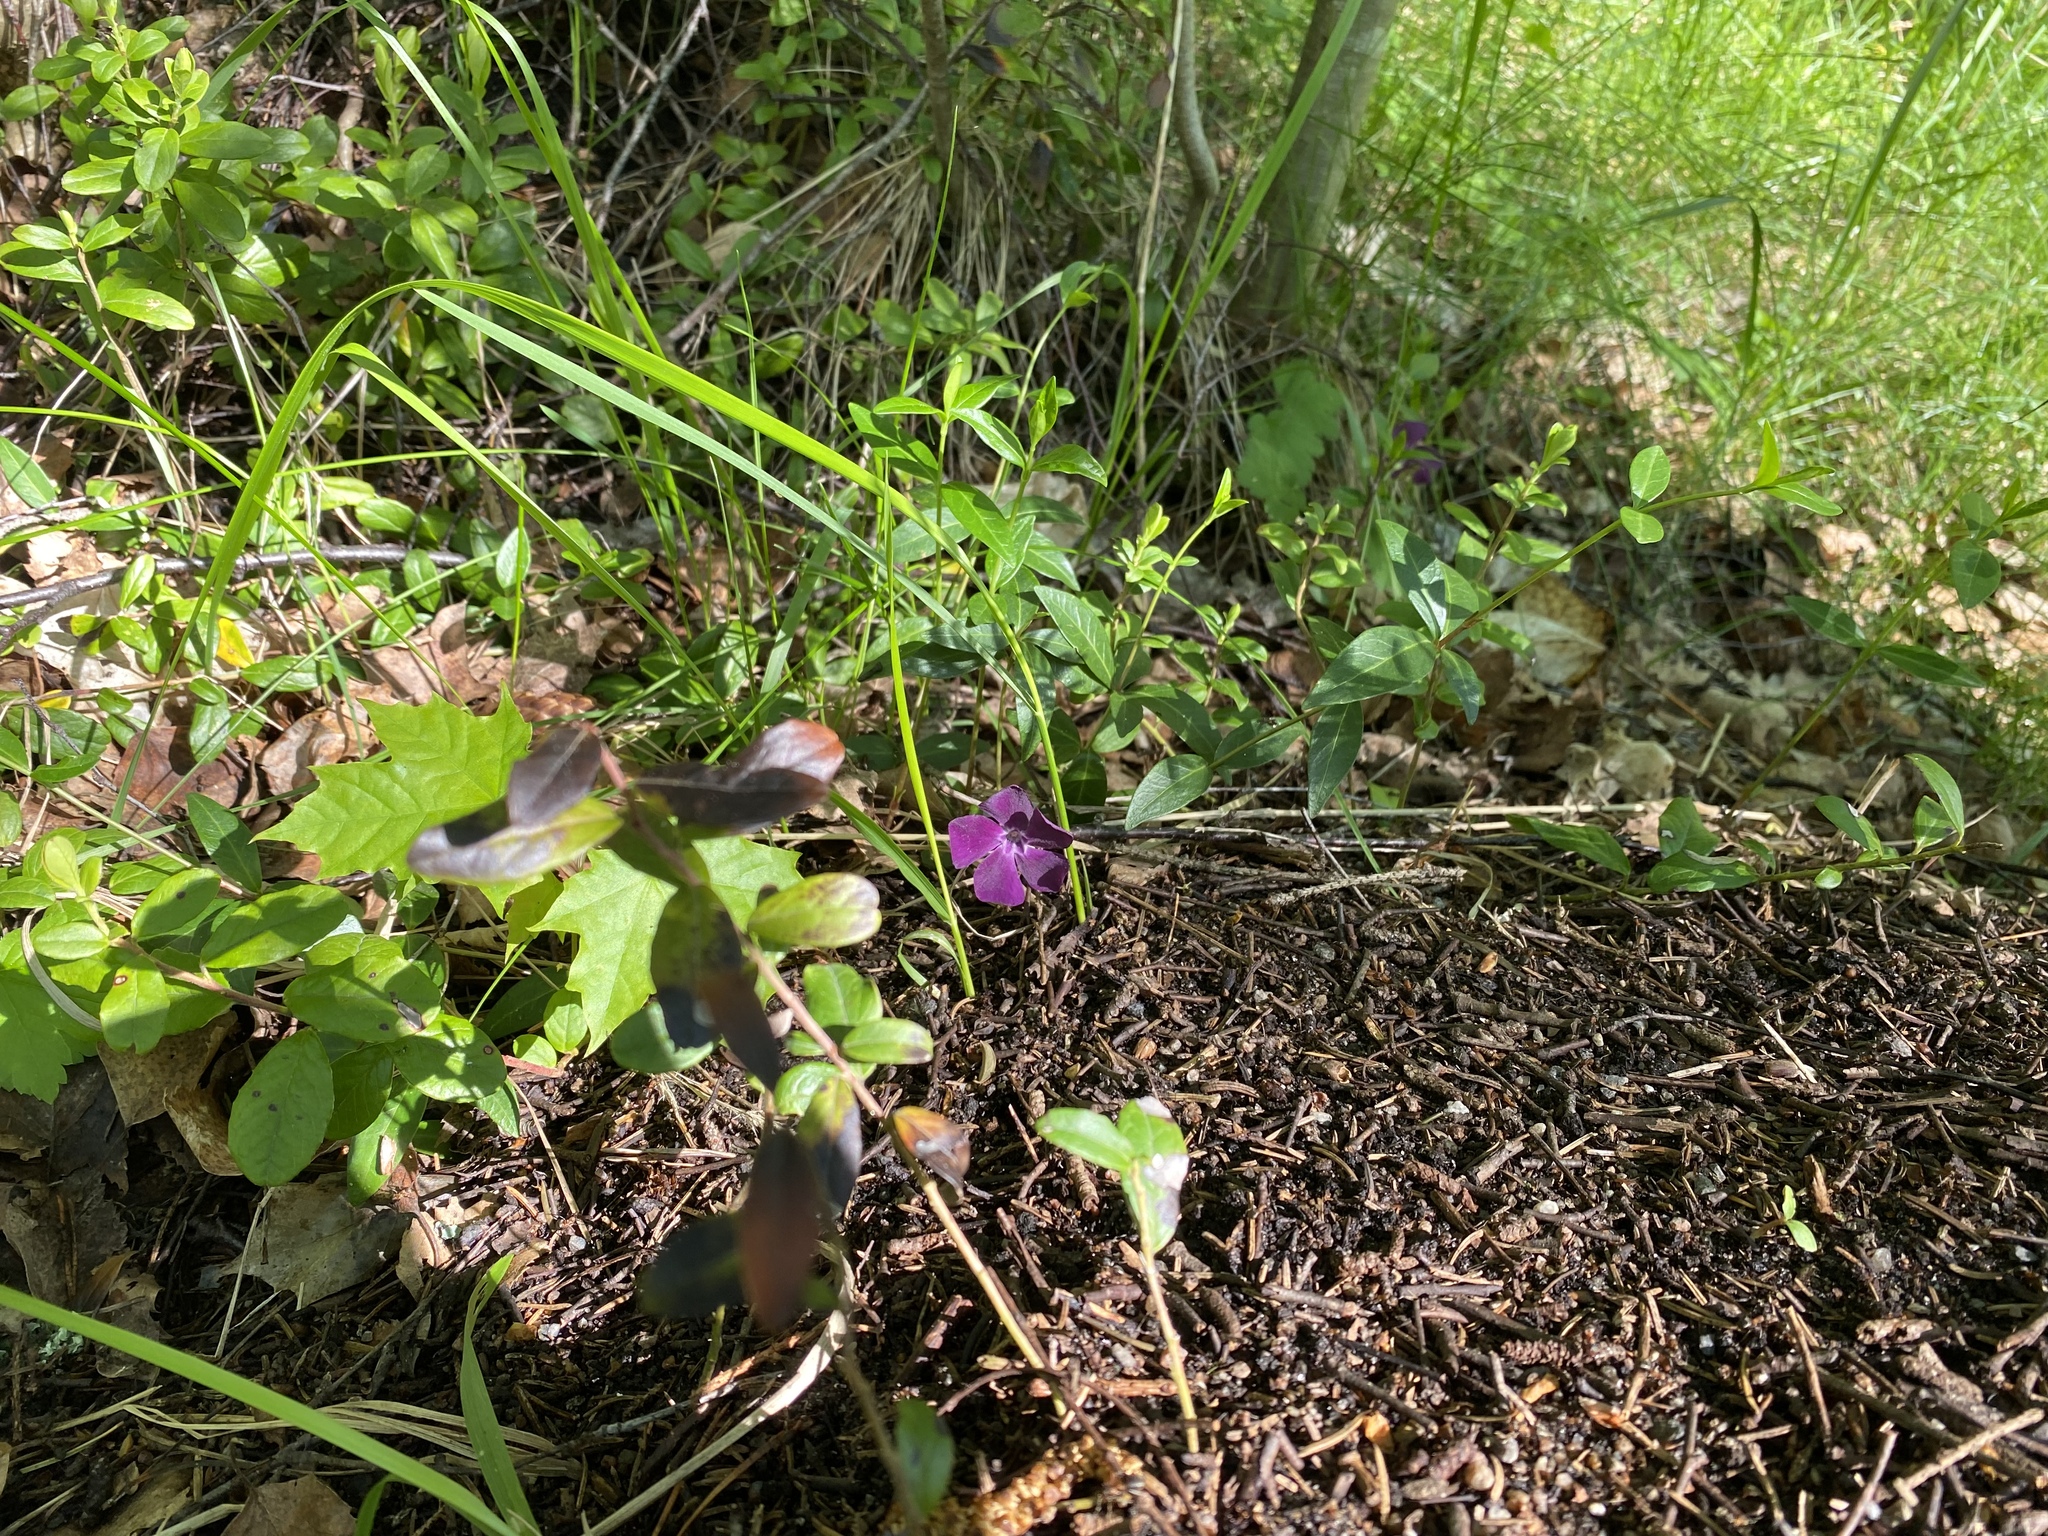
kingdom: Plantae
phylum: Tracheophyta
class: Magnoliopsida
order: Gentianales
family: Apocynaceae
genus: Vinca
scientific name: Vinca minor
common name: Lesser periwinkle
